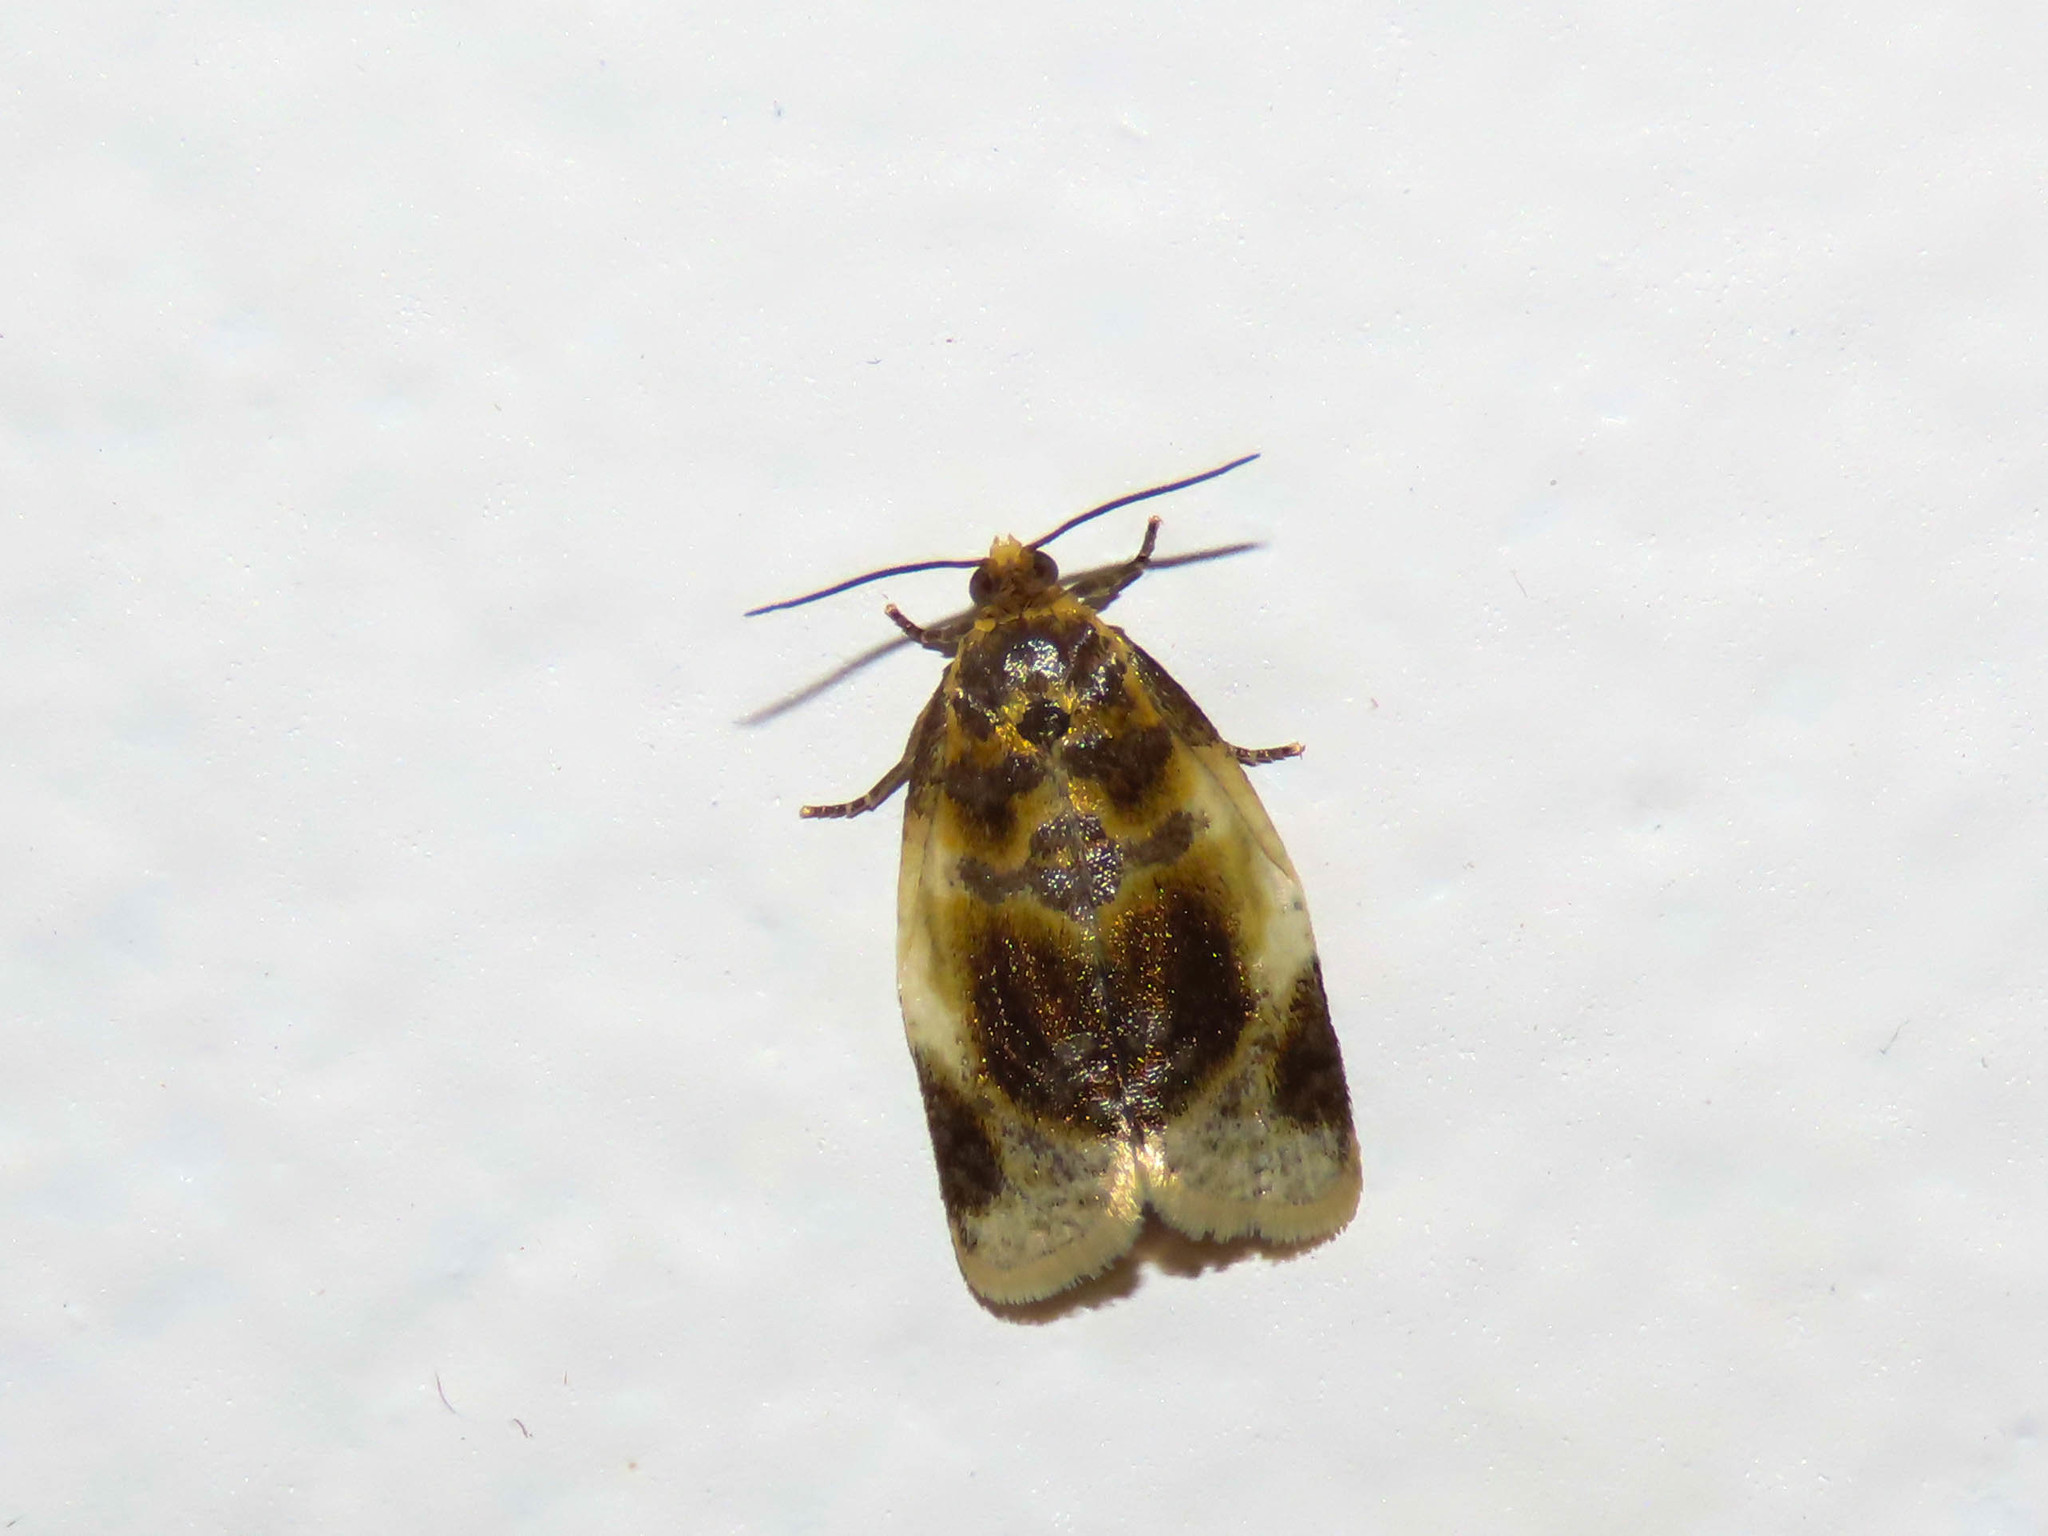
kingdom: Animalia
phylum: Arthropoda
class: Insecta
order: Lepidoptera
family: Tortricidae
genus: Clepsis
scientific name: Clepsis melaleucanus
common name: American apple tortrix
